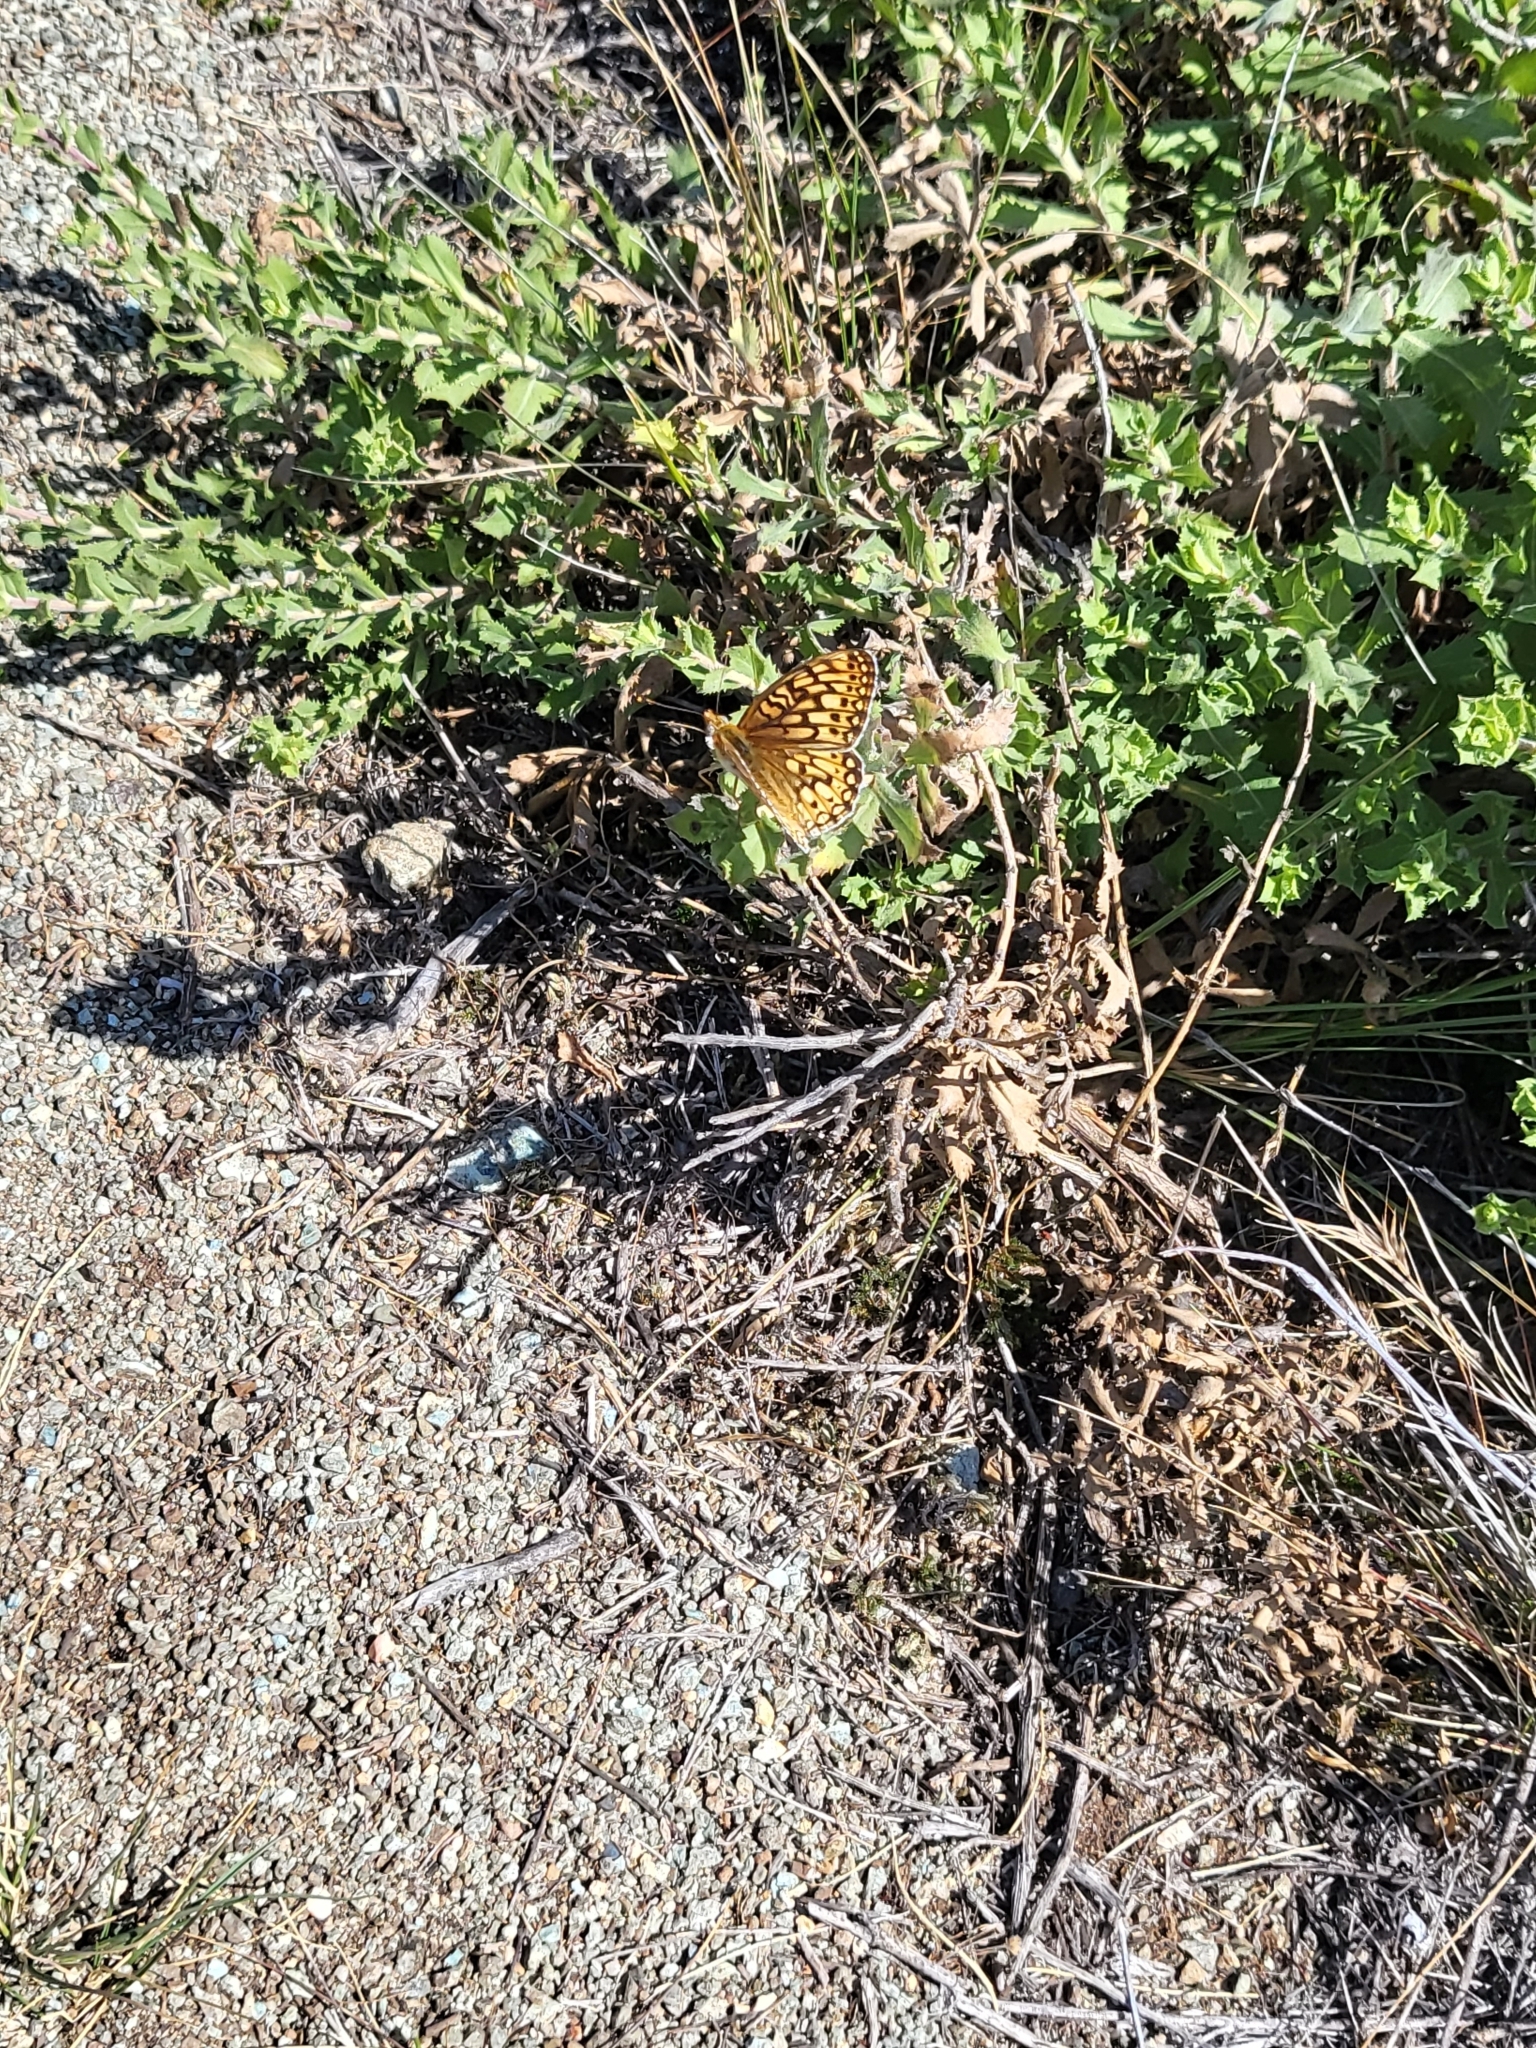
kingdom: Animalia
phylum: Arthropoda
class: Insecta
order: Lepidoptera
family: Nymphalidae
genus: Speyeria
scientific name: Speyeria callippe
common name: Callippe fritillary
